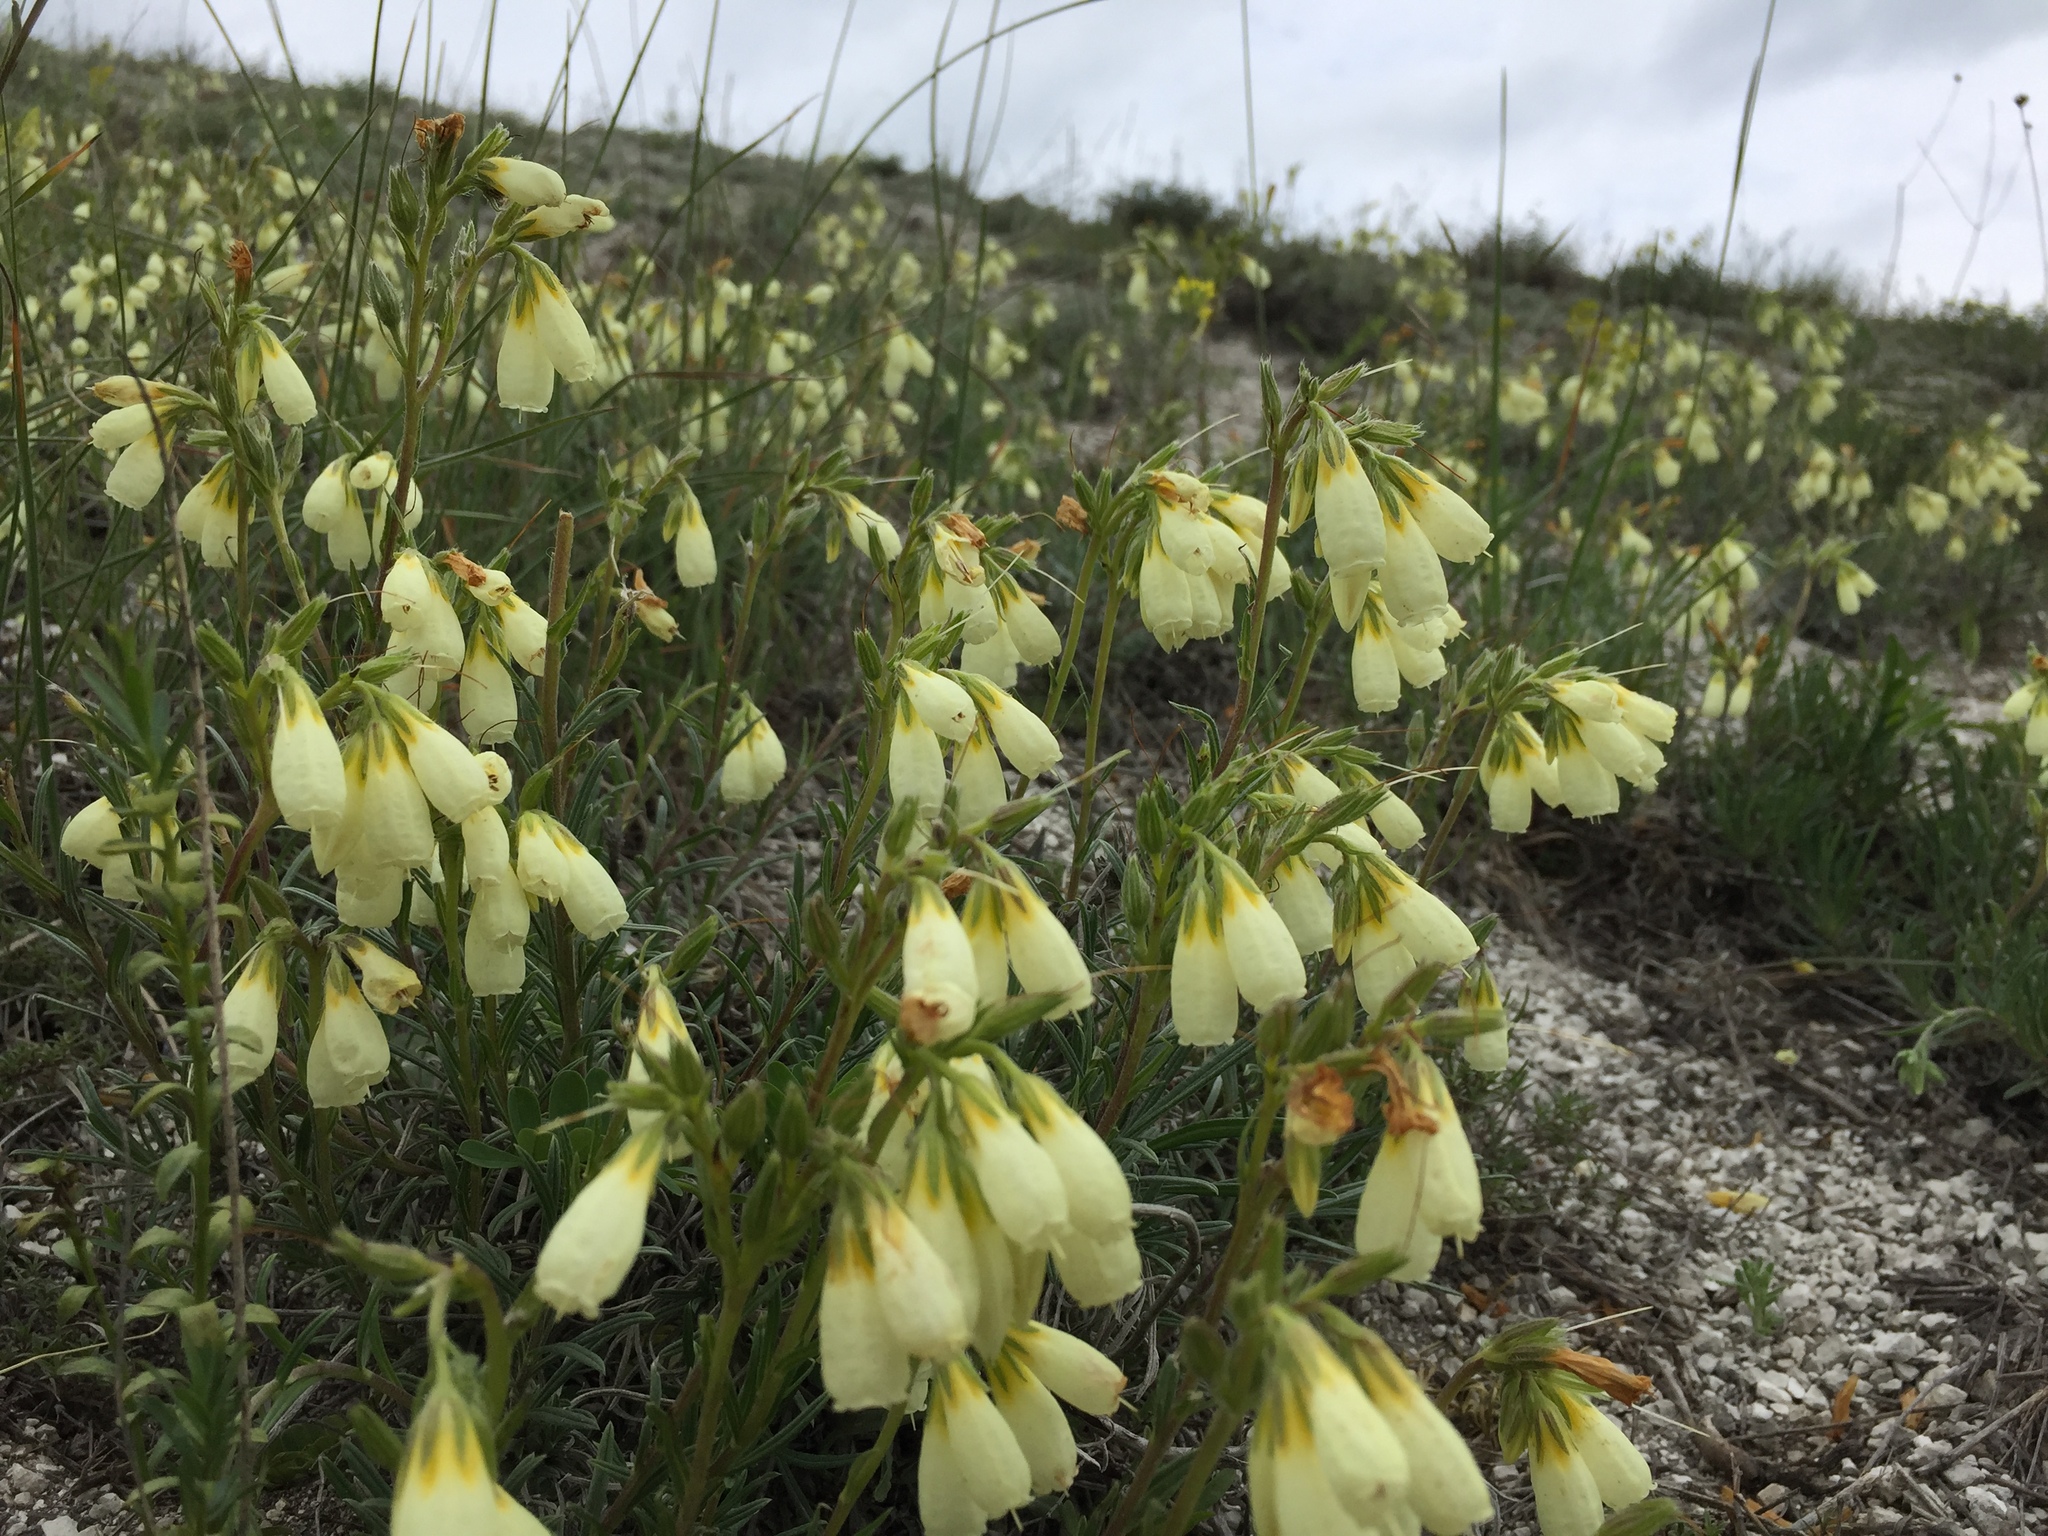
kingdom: Plantae
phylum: Tracheophyta
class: Magnoliopsida
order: Boraginales
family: Boraginaceae
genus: Onosma
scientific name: Onosma simplicissima
